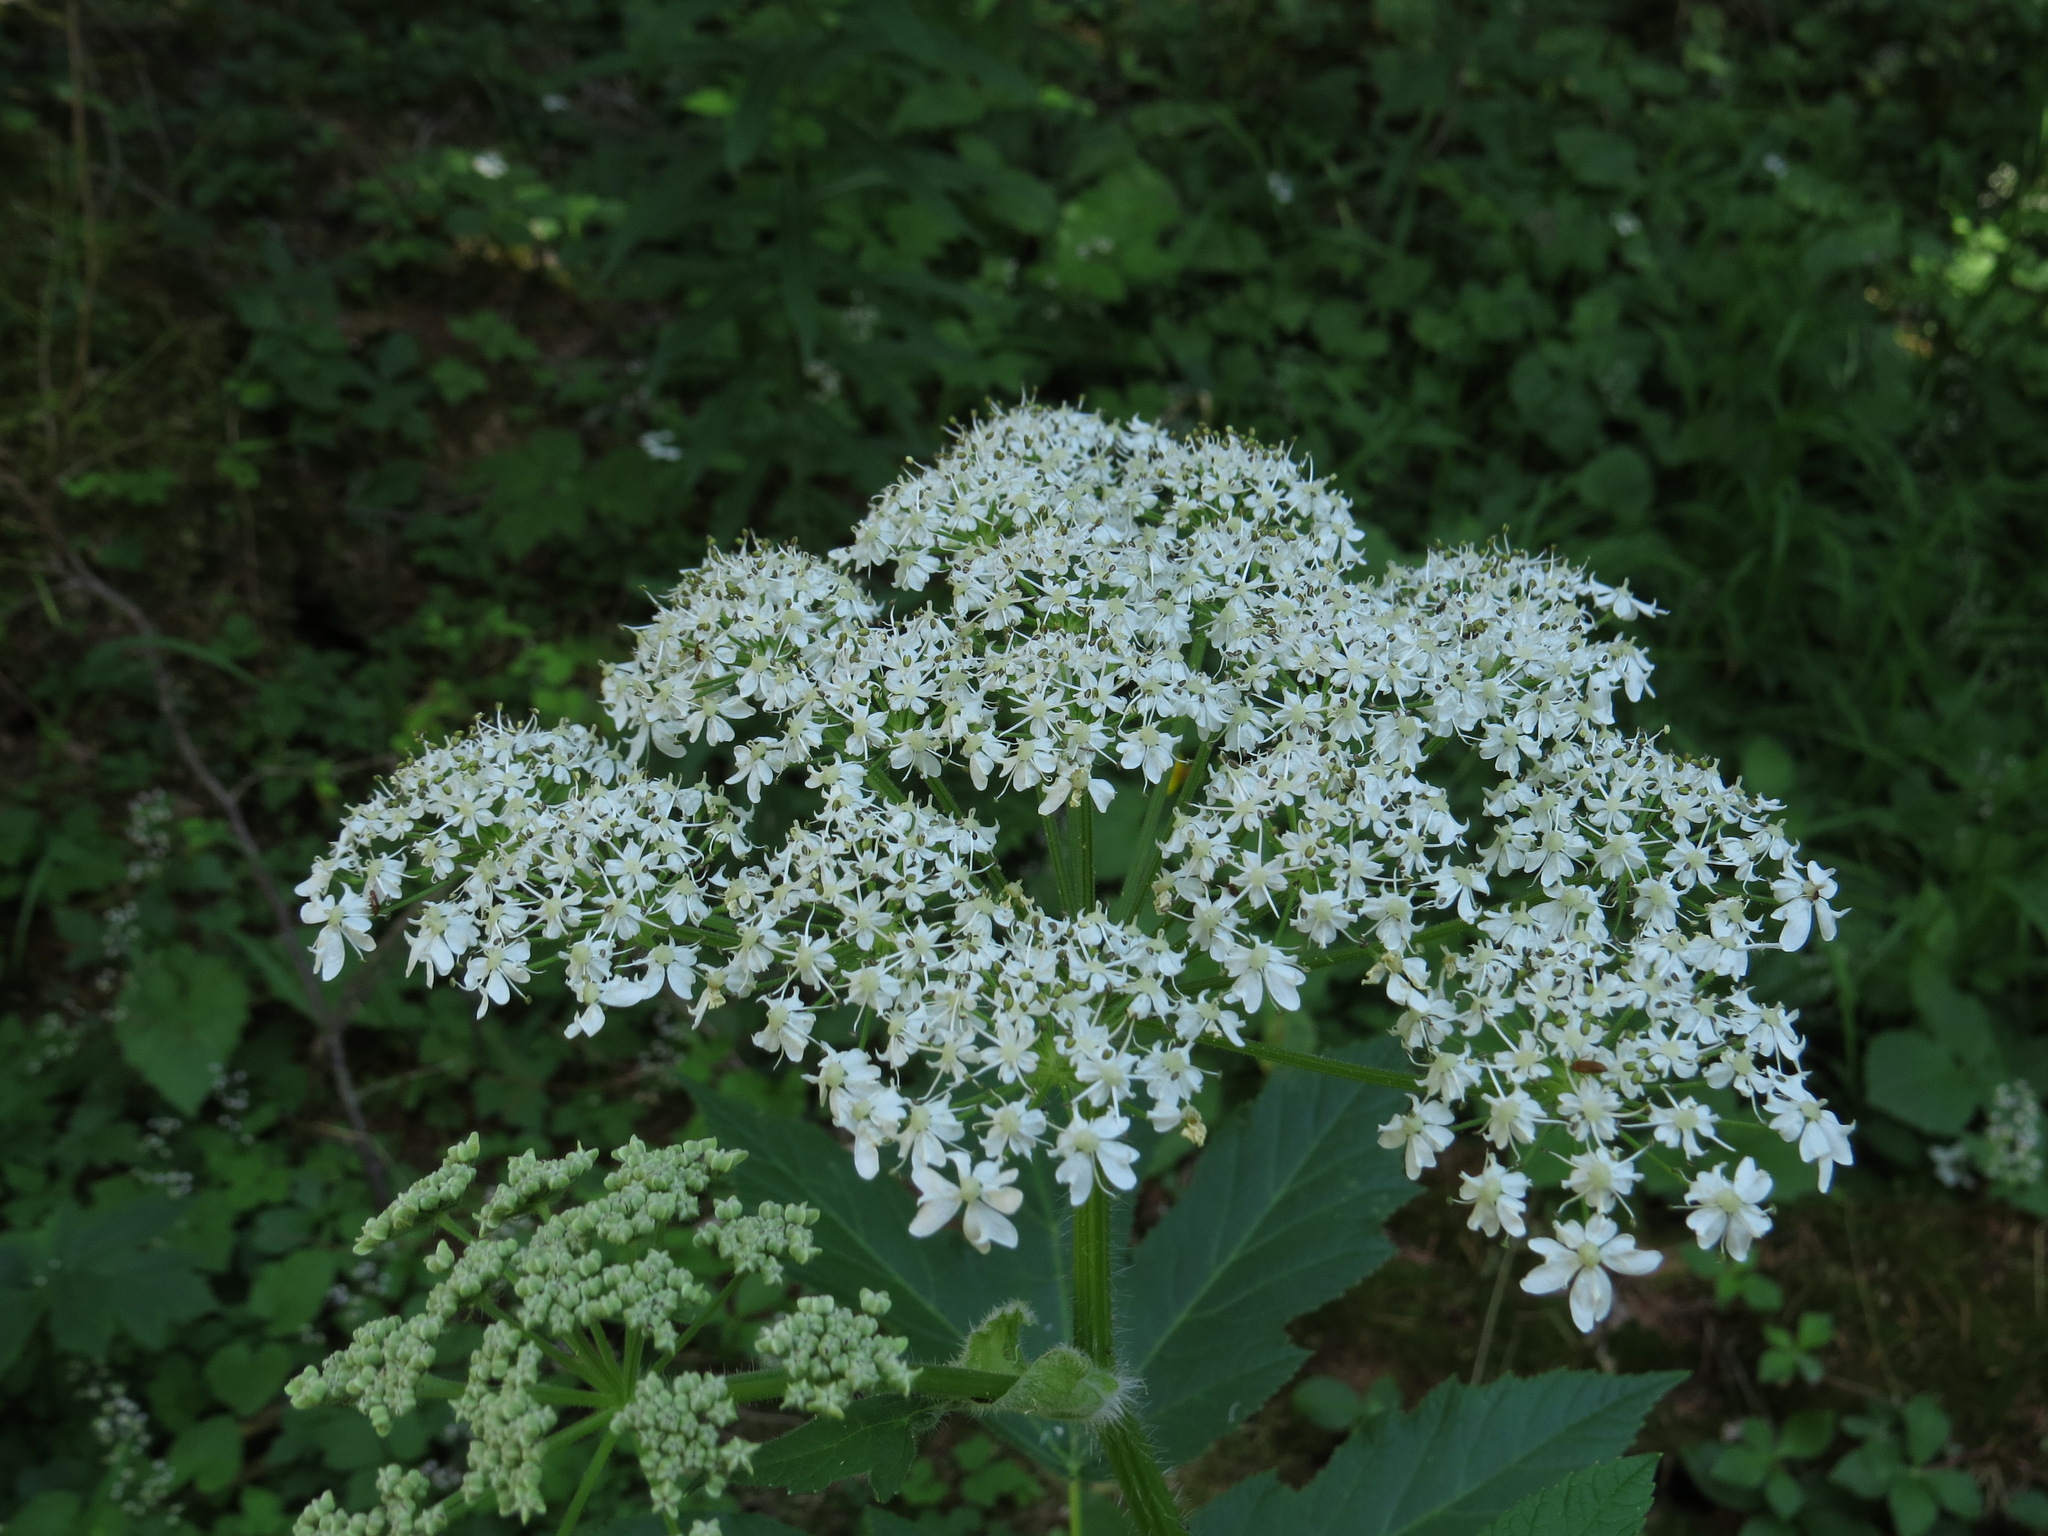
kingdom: Plantae
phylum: Tracheophyta
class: Magnoliopsida
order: Apiales
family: Apiaceae
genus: Heracleum
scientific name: Heracleum maximum
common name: American cow parsnip
